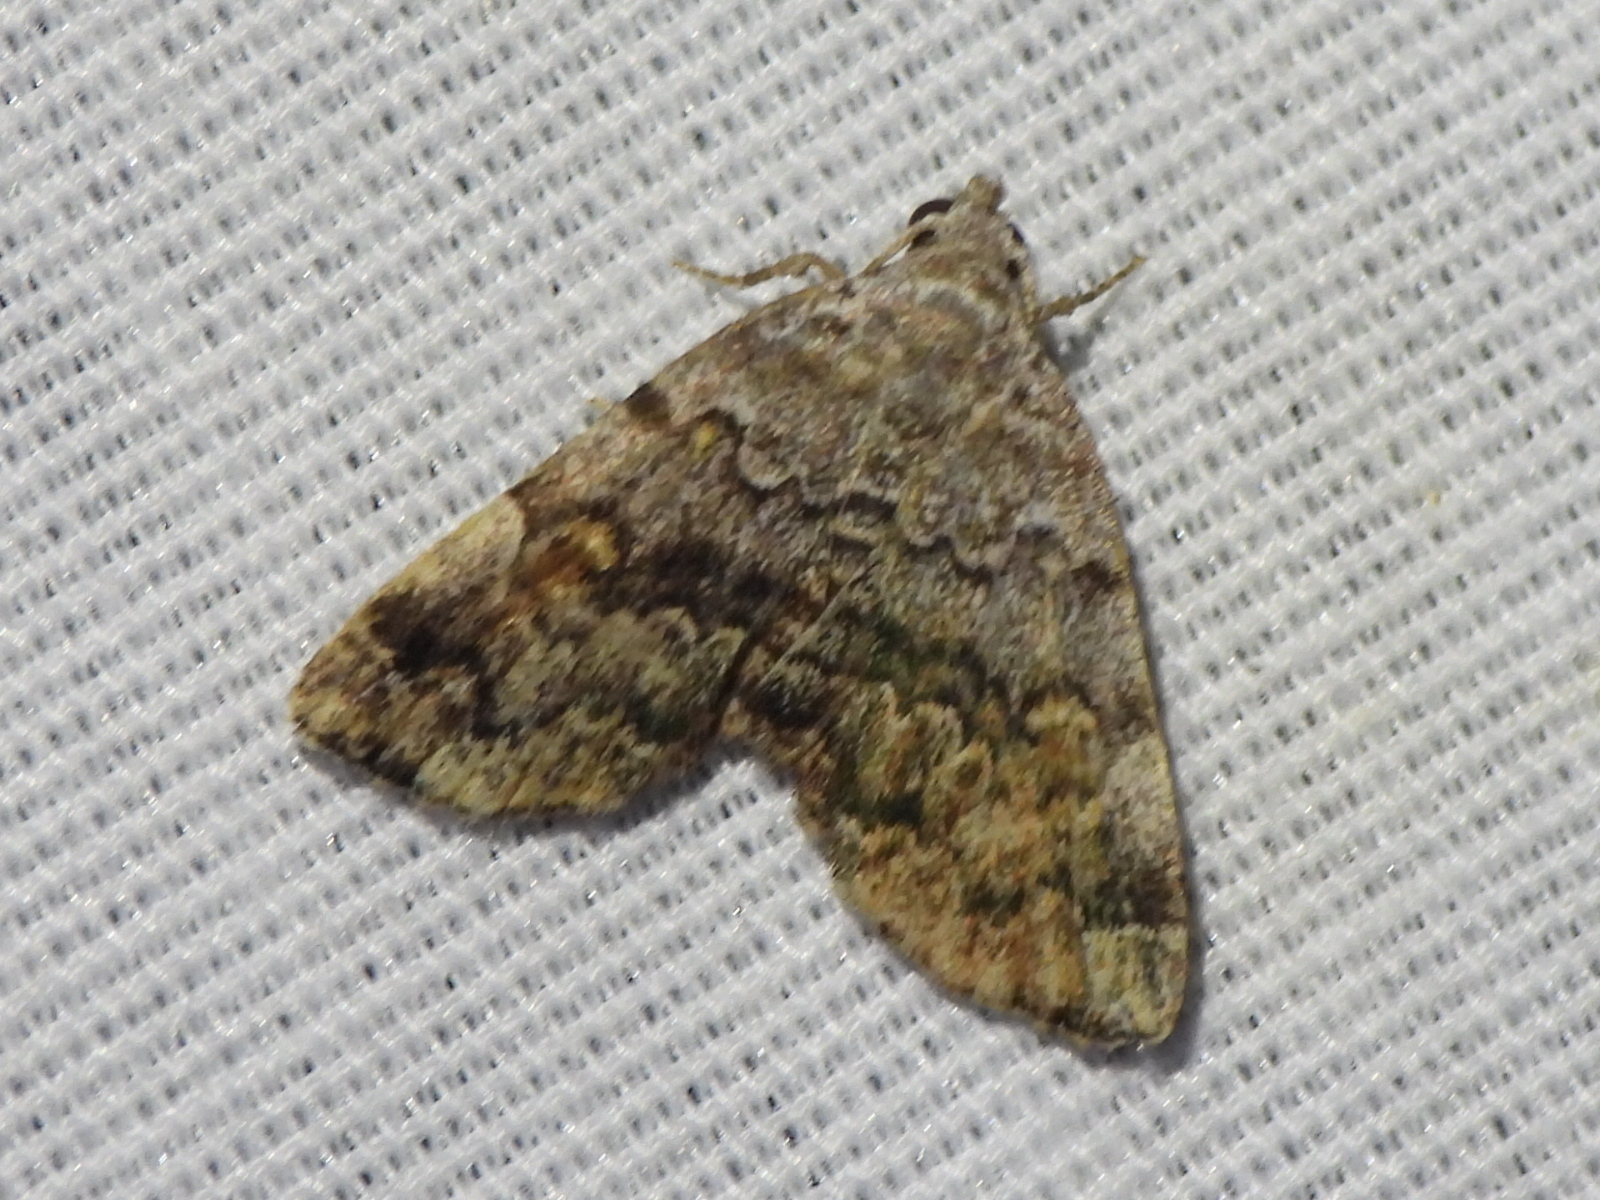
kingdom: Animalia
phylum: Arthropoda
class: Insecta
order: Lepidoptera
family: Erebidae
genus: Idia
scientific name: Idia americalis
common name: American idia moth
